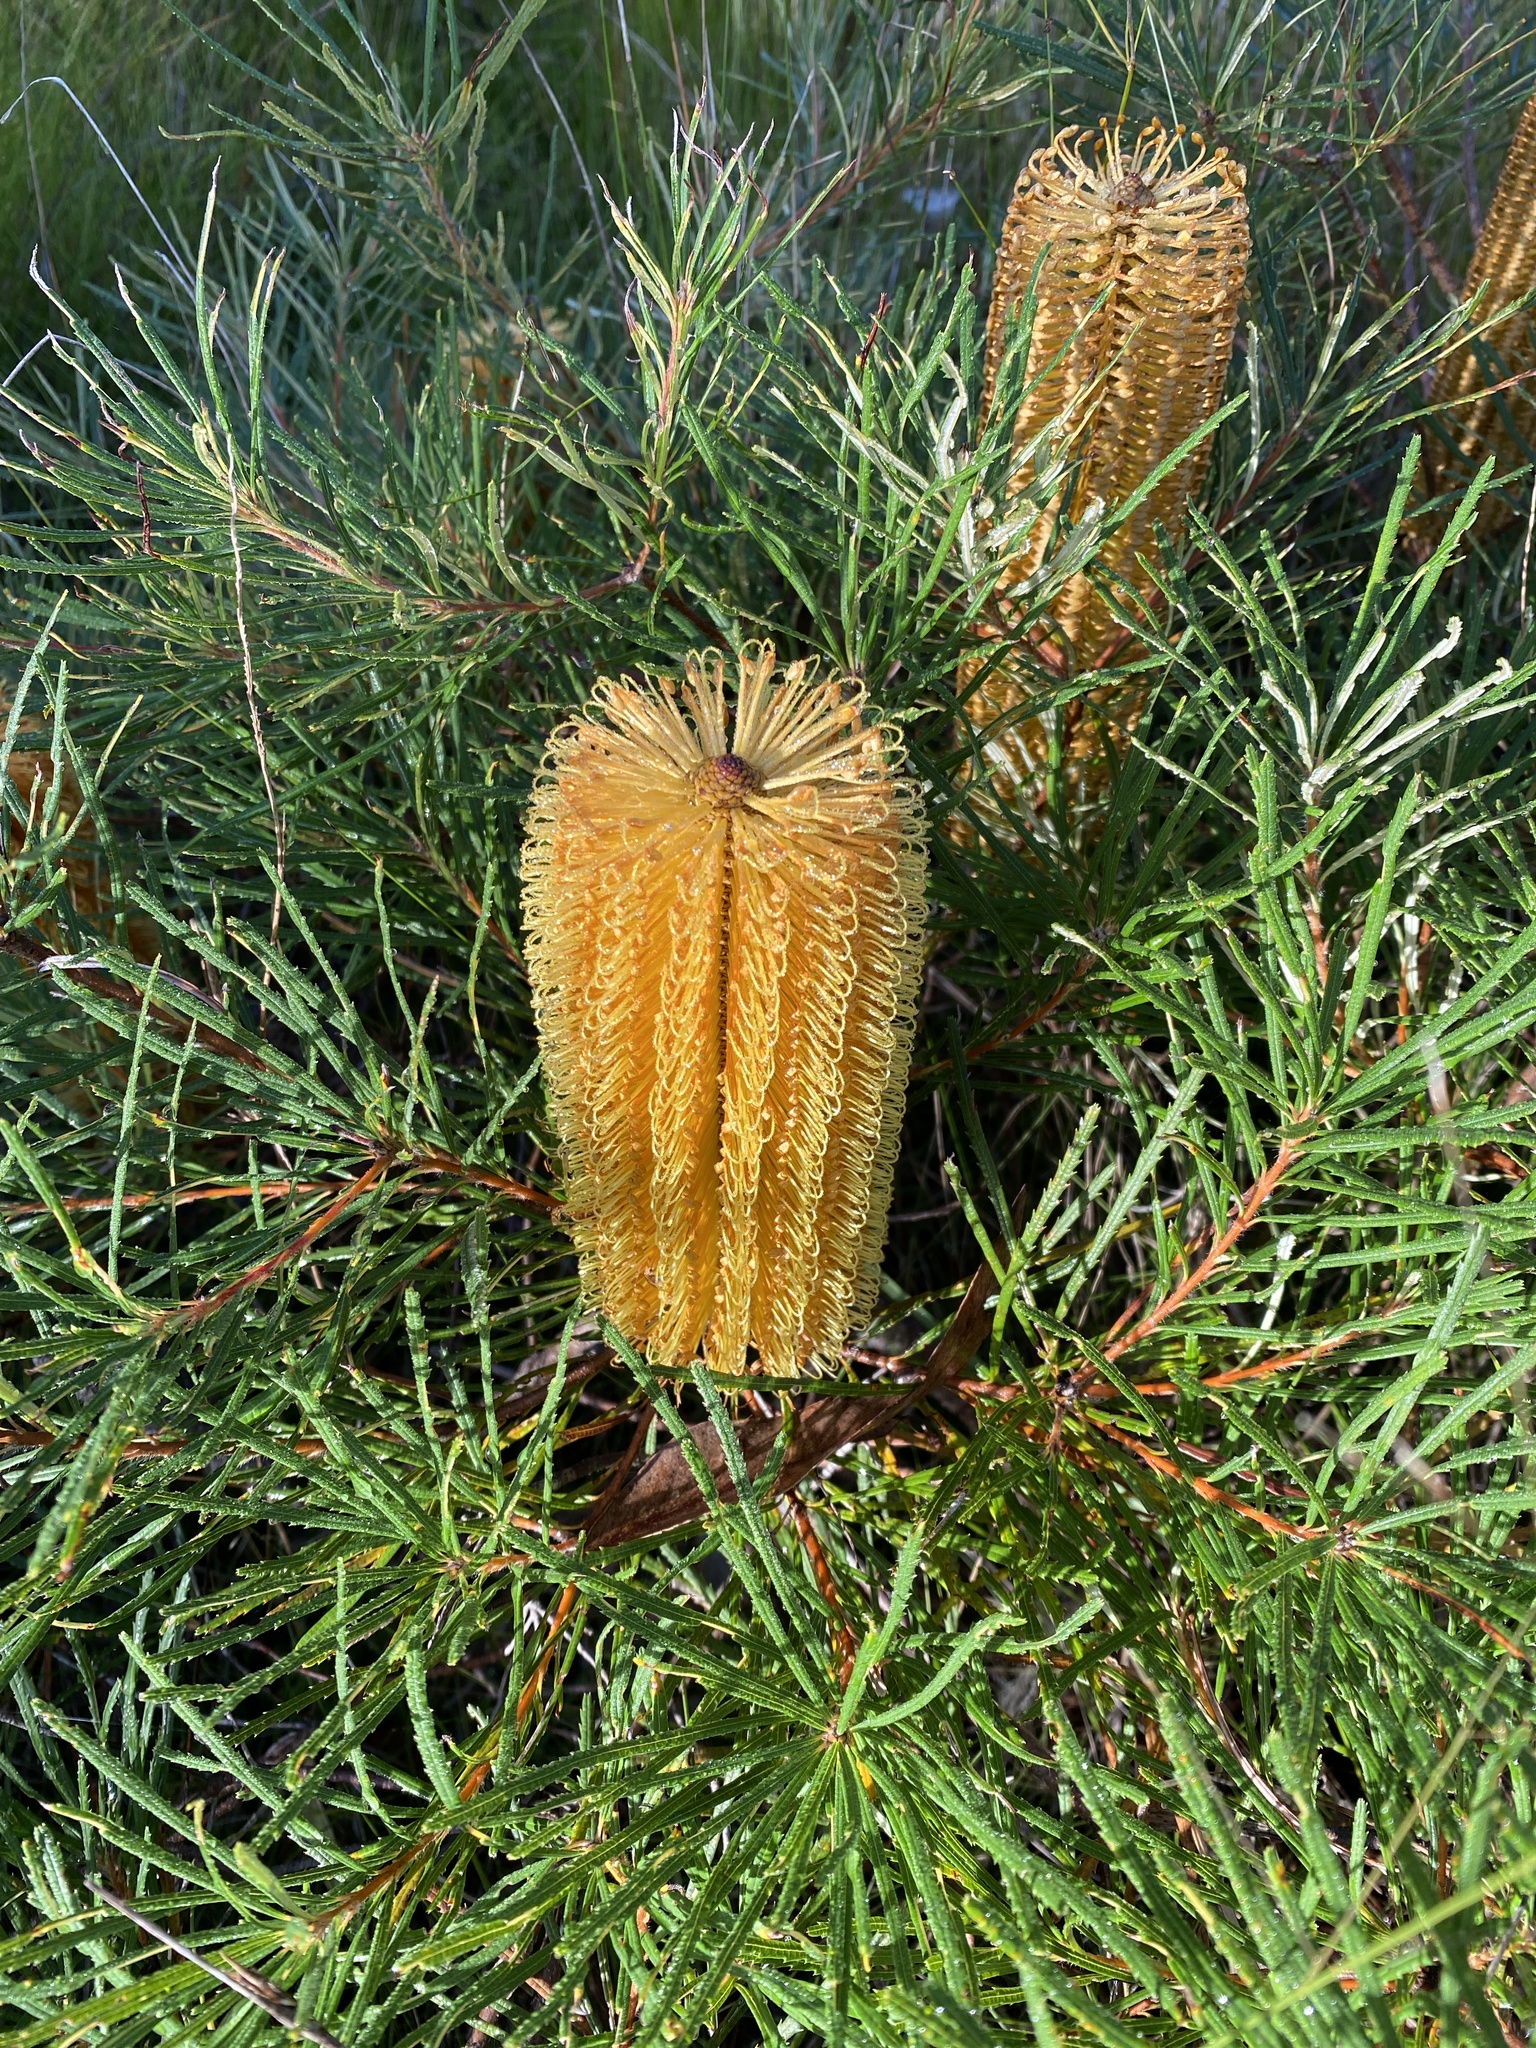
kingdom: Plantae
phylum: Tracheophyta
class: Magnoliopsida
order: Proteales
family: Proteaceae
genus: Banksia
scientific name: Banksia spinulosa
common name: Hairpin banksia
